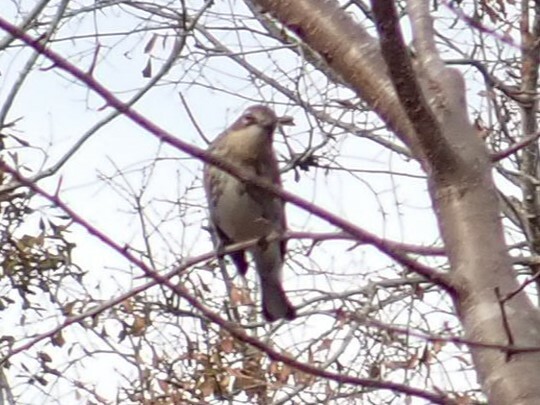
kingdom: Animalia
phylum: Chordata
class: Aves
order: Passeriformes
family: Parulidae
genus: Setophaga
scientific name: Setophaga coronata
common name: Myrtle warbler
